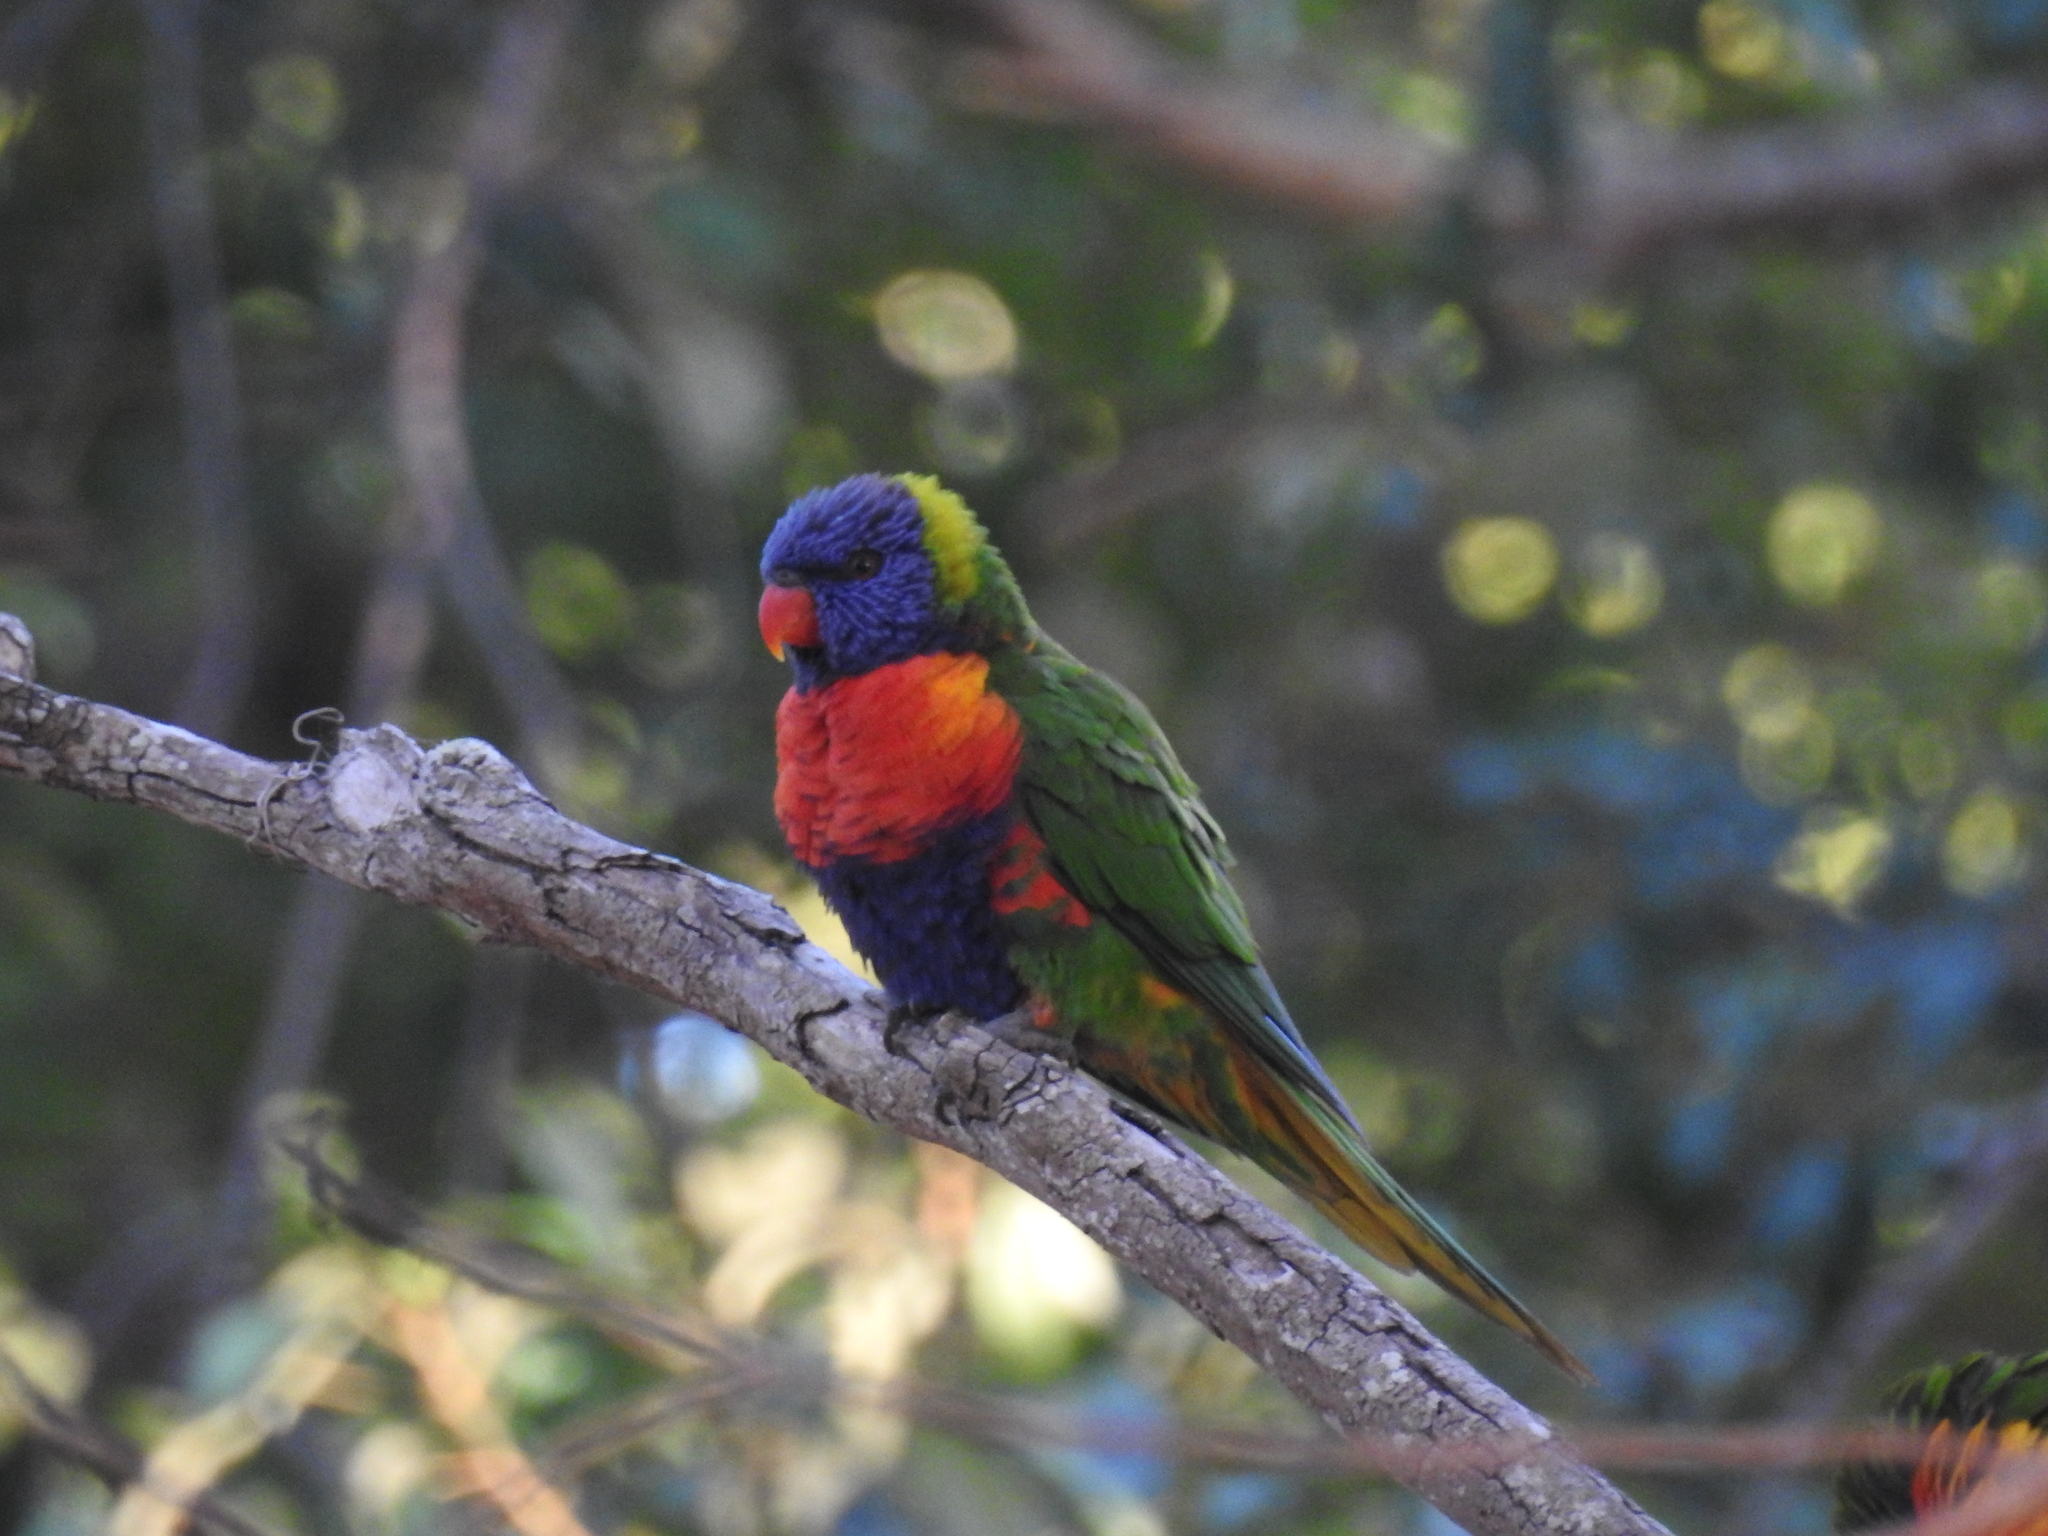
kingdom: Animalia
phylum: Chordata
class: Aves
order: Psittaciformes
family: Psittacidae
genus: Trichoglossus
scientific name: Trichoglossus haematodus
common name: Coconut lorikeet
